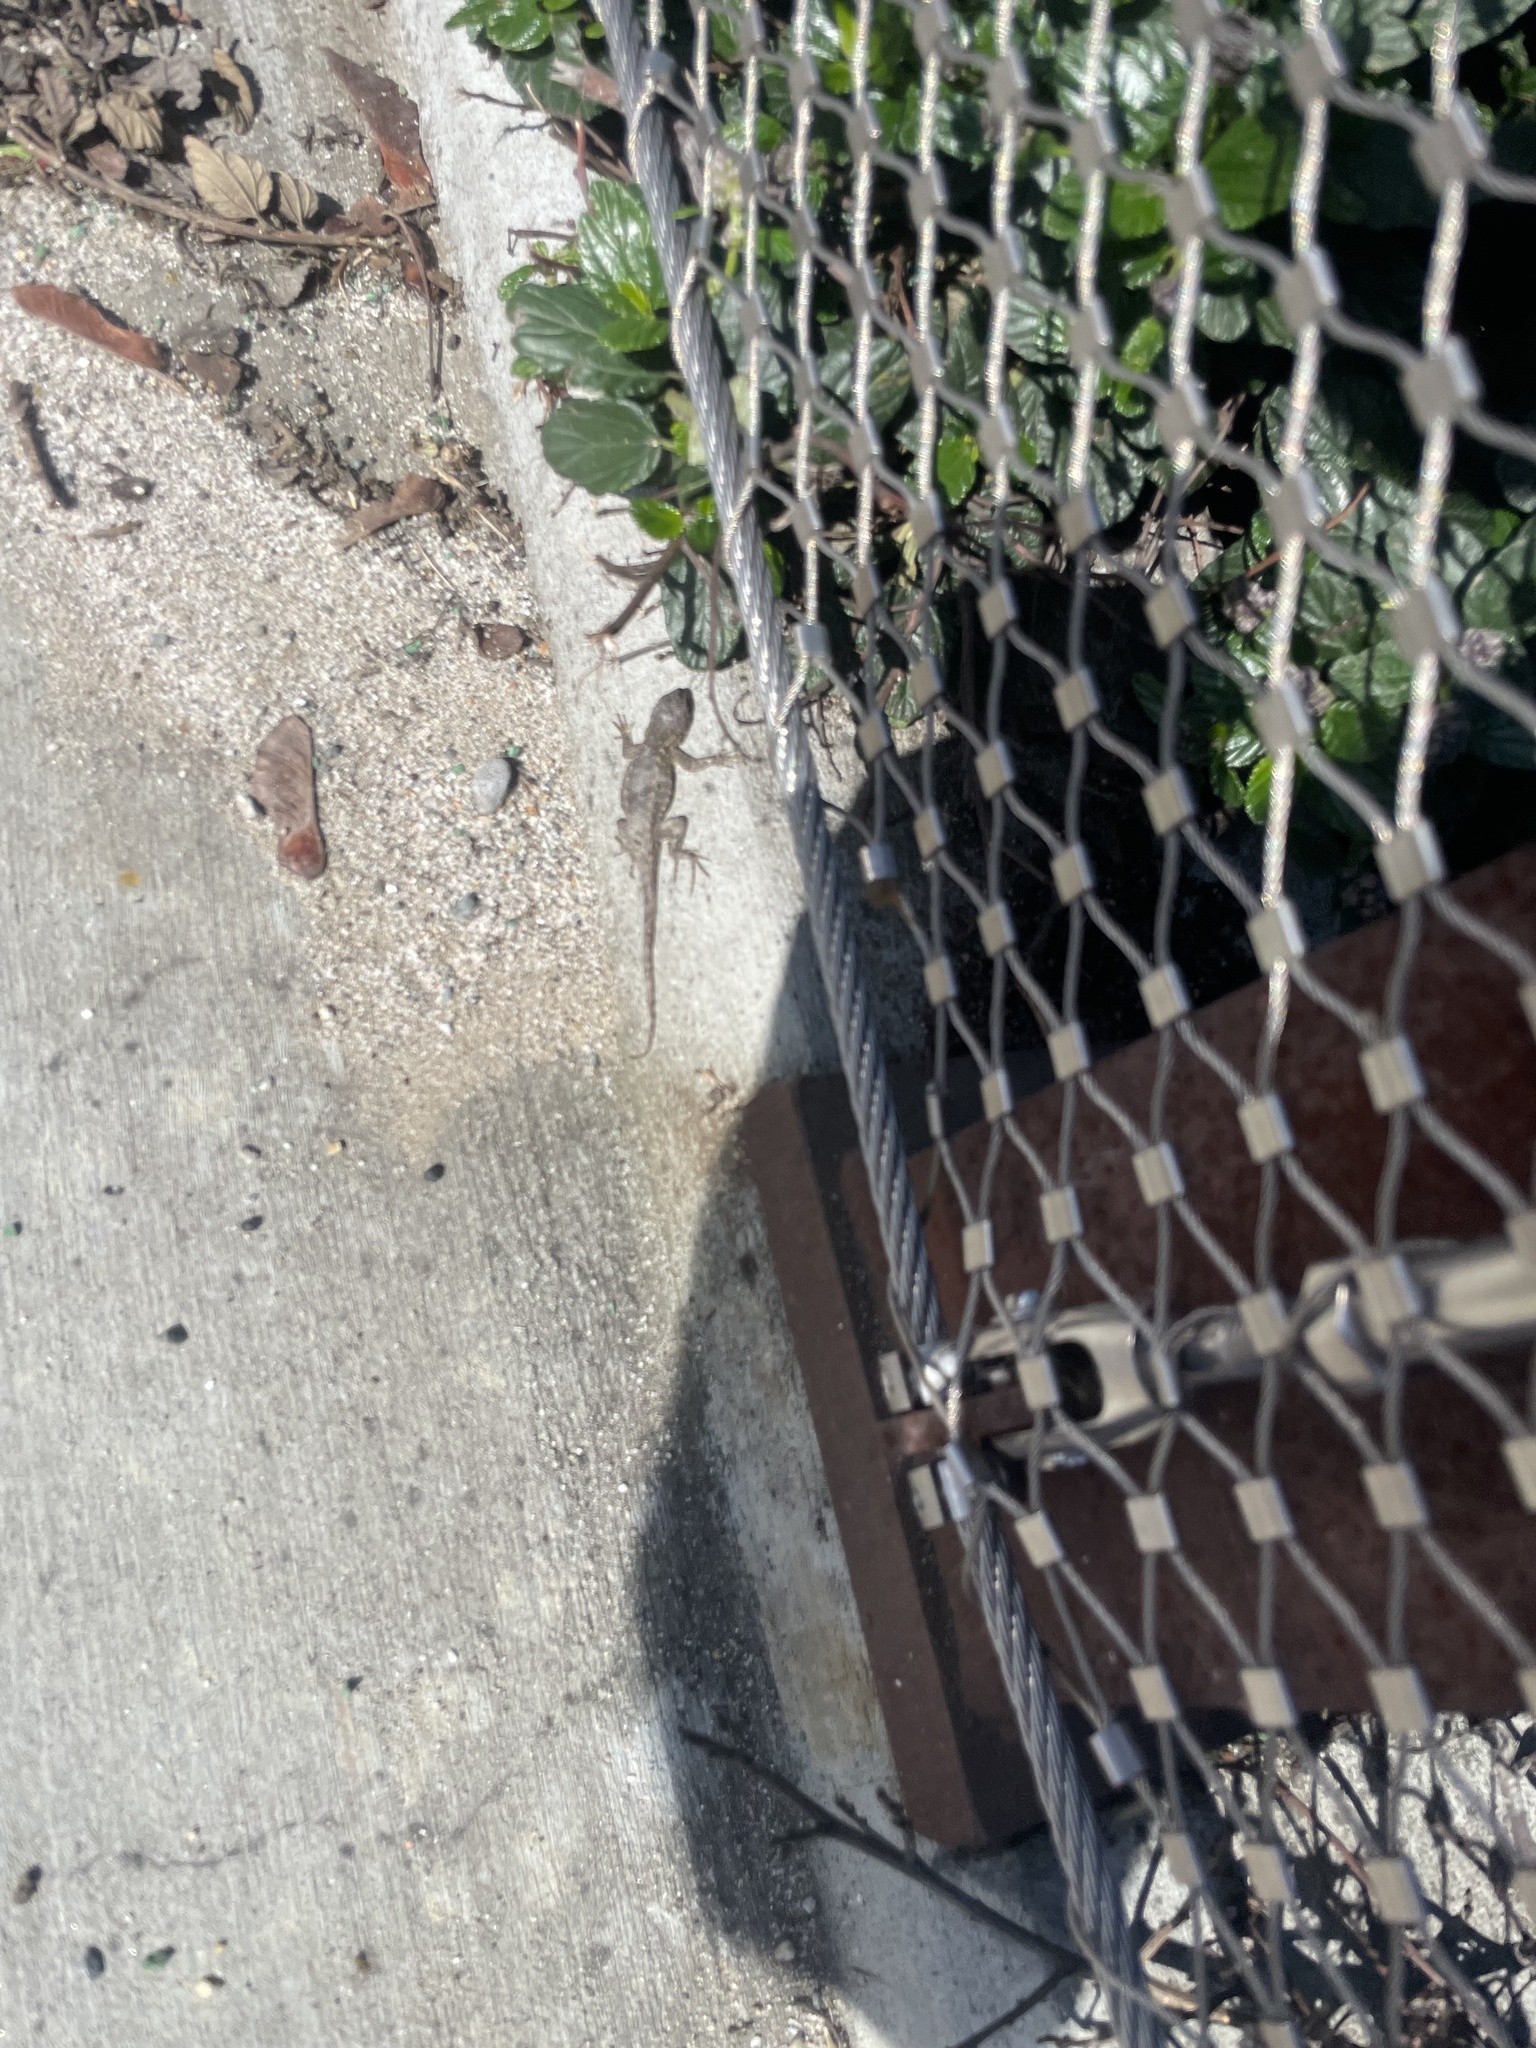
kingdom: Animalia
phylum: Chordata
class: Squamata
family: Phrynosomatidae
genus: Sceloporus
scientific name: Sceloporus occidentalis
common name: Western fence lizard
